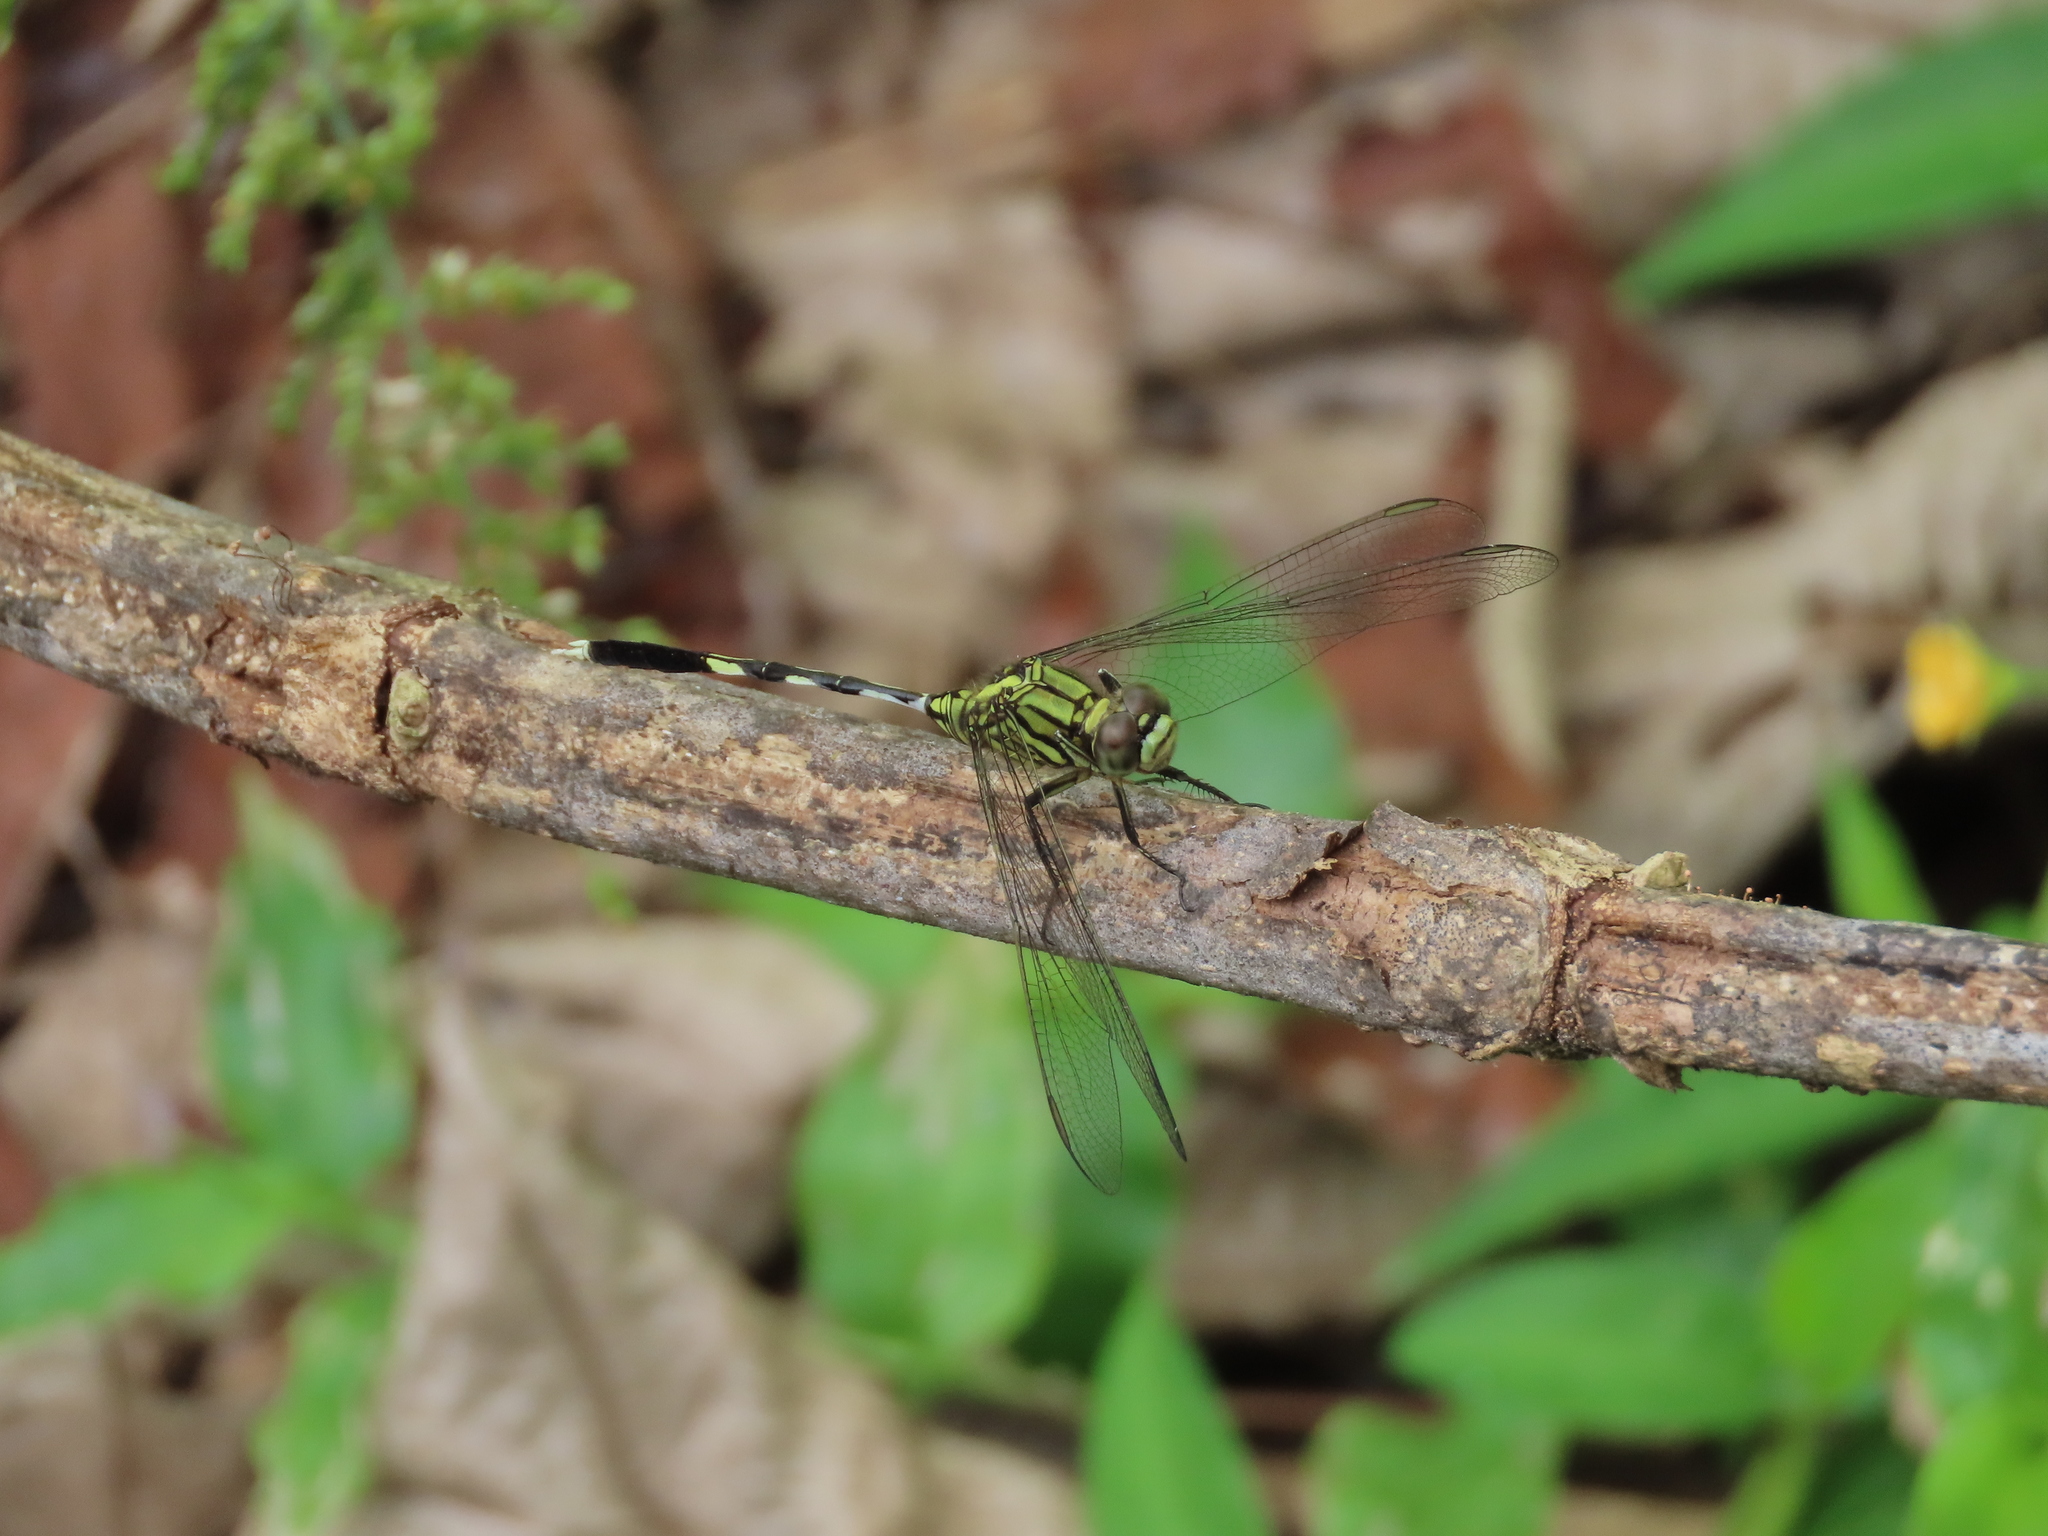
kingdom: Animalia
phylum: Arthropoda
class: Insecta
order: Odonata
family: Libellulidae
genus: Orthetrum
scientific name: Orthetrum sabina
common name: Slender skimmer
